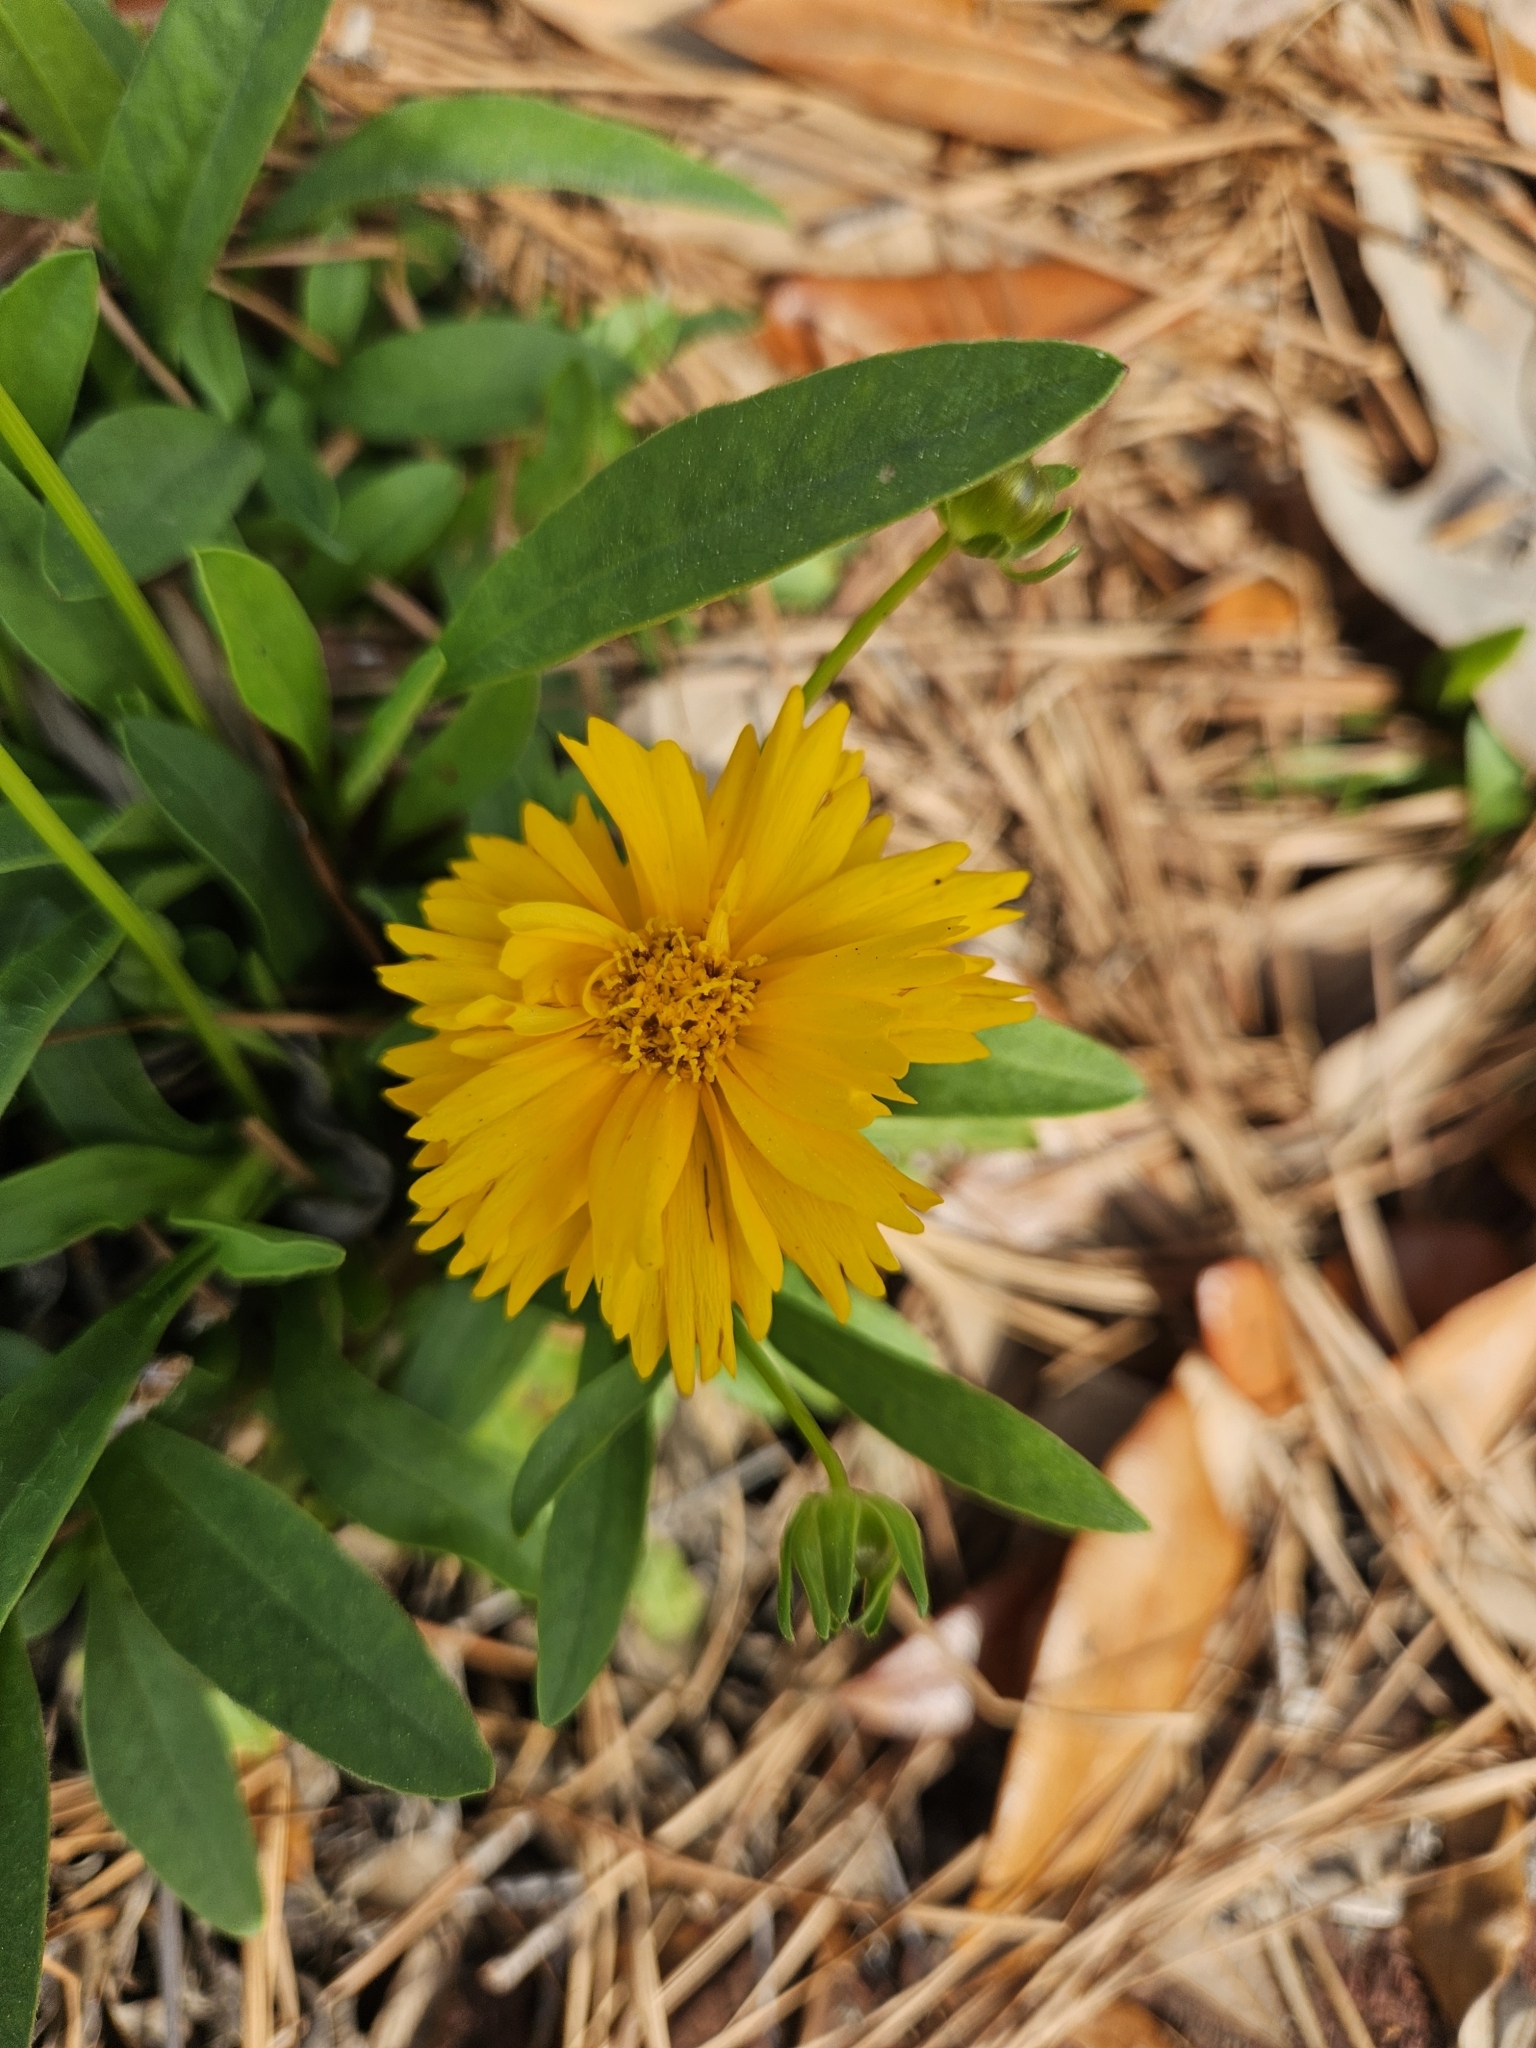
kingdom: Plantae
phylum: Tracheophyta
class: Magnoliopsida
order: Asterales
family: Asteraceae
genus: Coreopsis
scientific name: Coreopsis lanceolata
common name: Garden coreopsis
